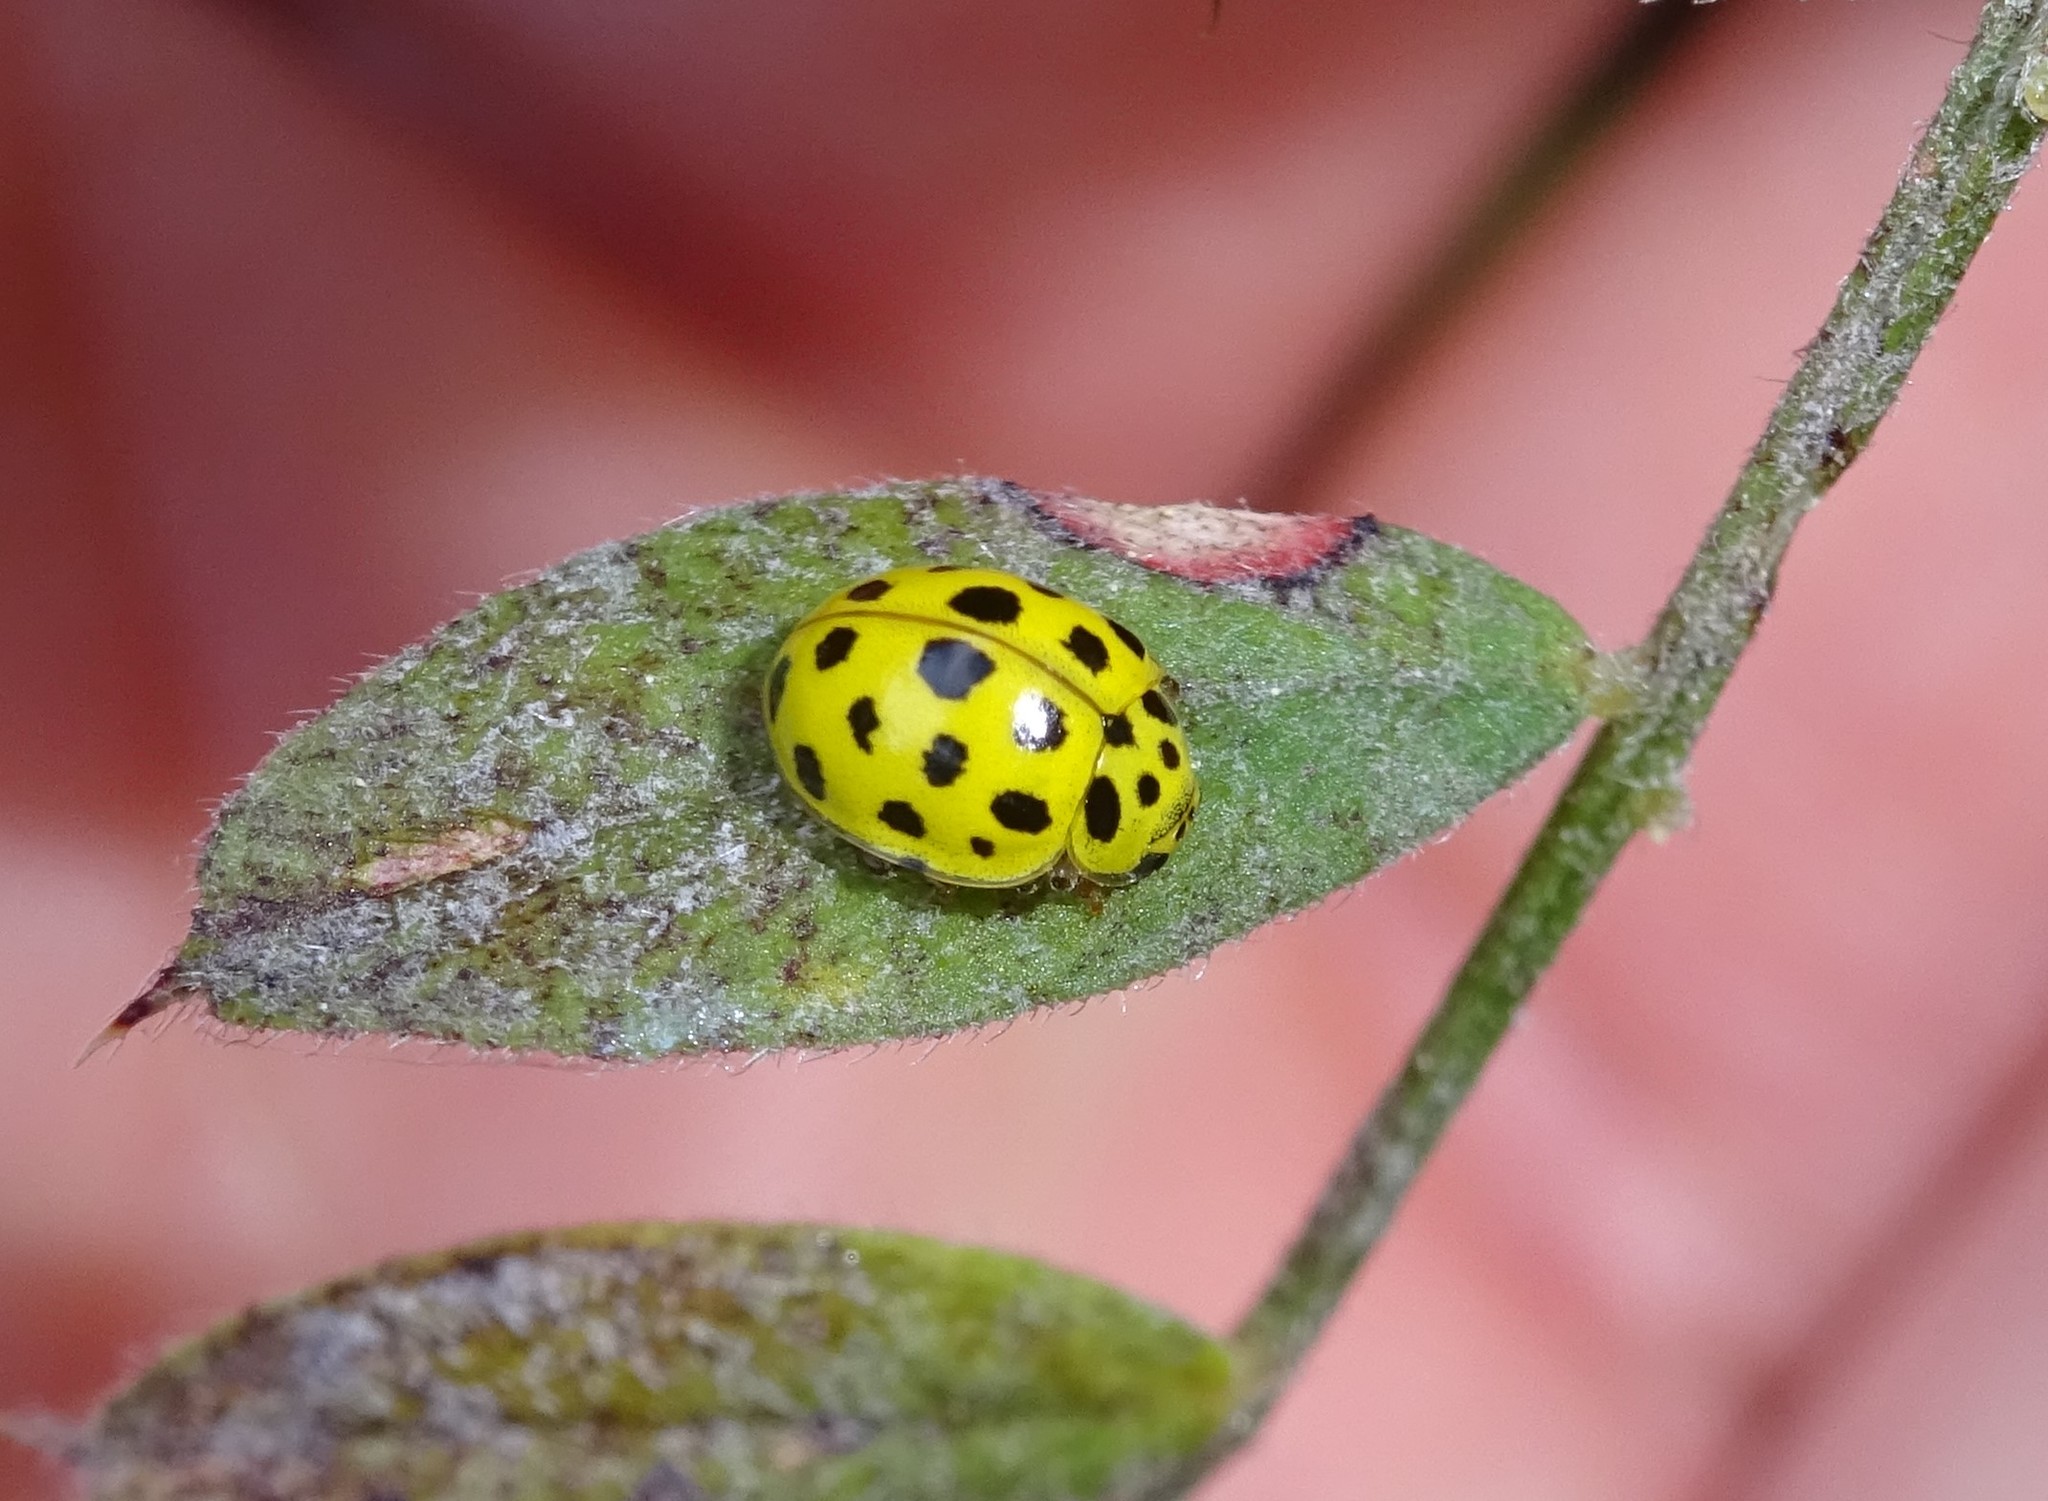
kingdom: Animalia
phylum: Arthropoda
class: Insecta
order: Coleoptera
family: Coccinellidae
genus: Psyllobora
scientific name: Psyllobora vigintiduopunctata
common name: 22-spot ladybird
